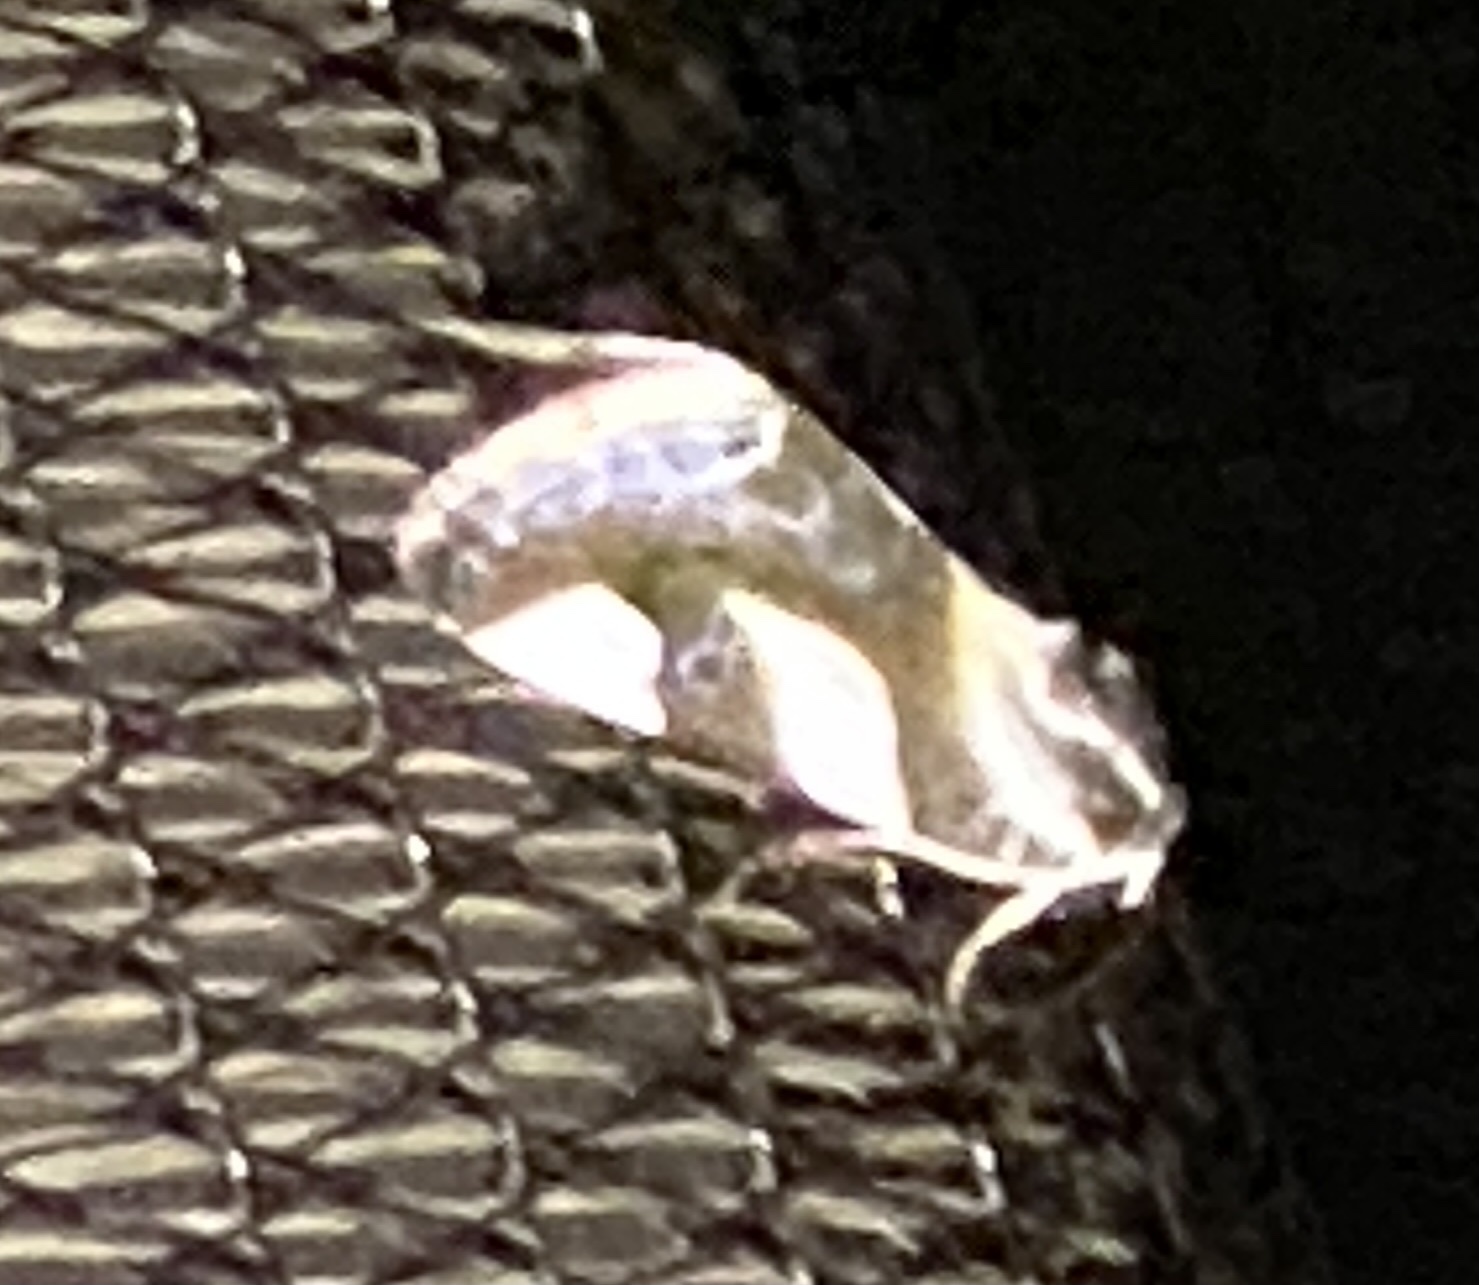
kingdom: Animalia
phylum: Arthropoda
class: Insecta
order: Lepidoptera
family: Noctuidae
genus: Acontia
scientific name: Acontia umbrigera
